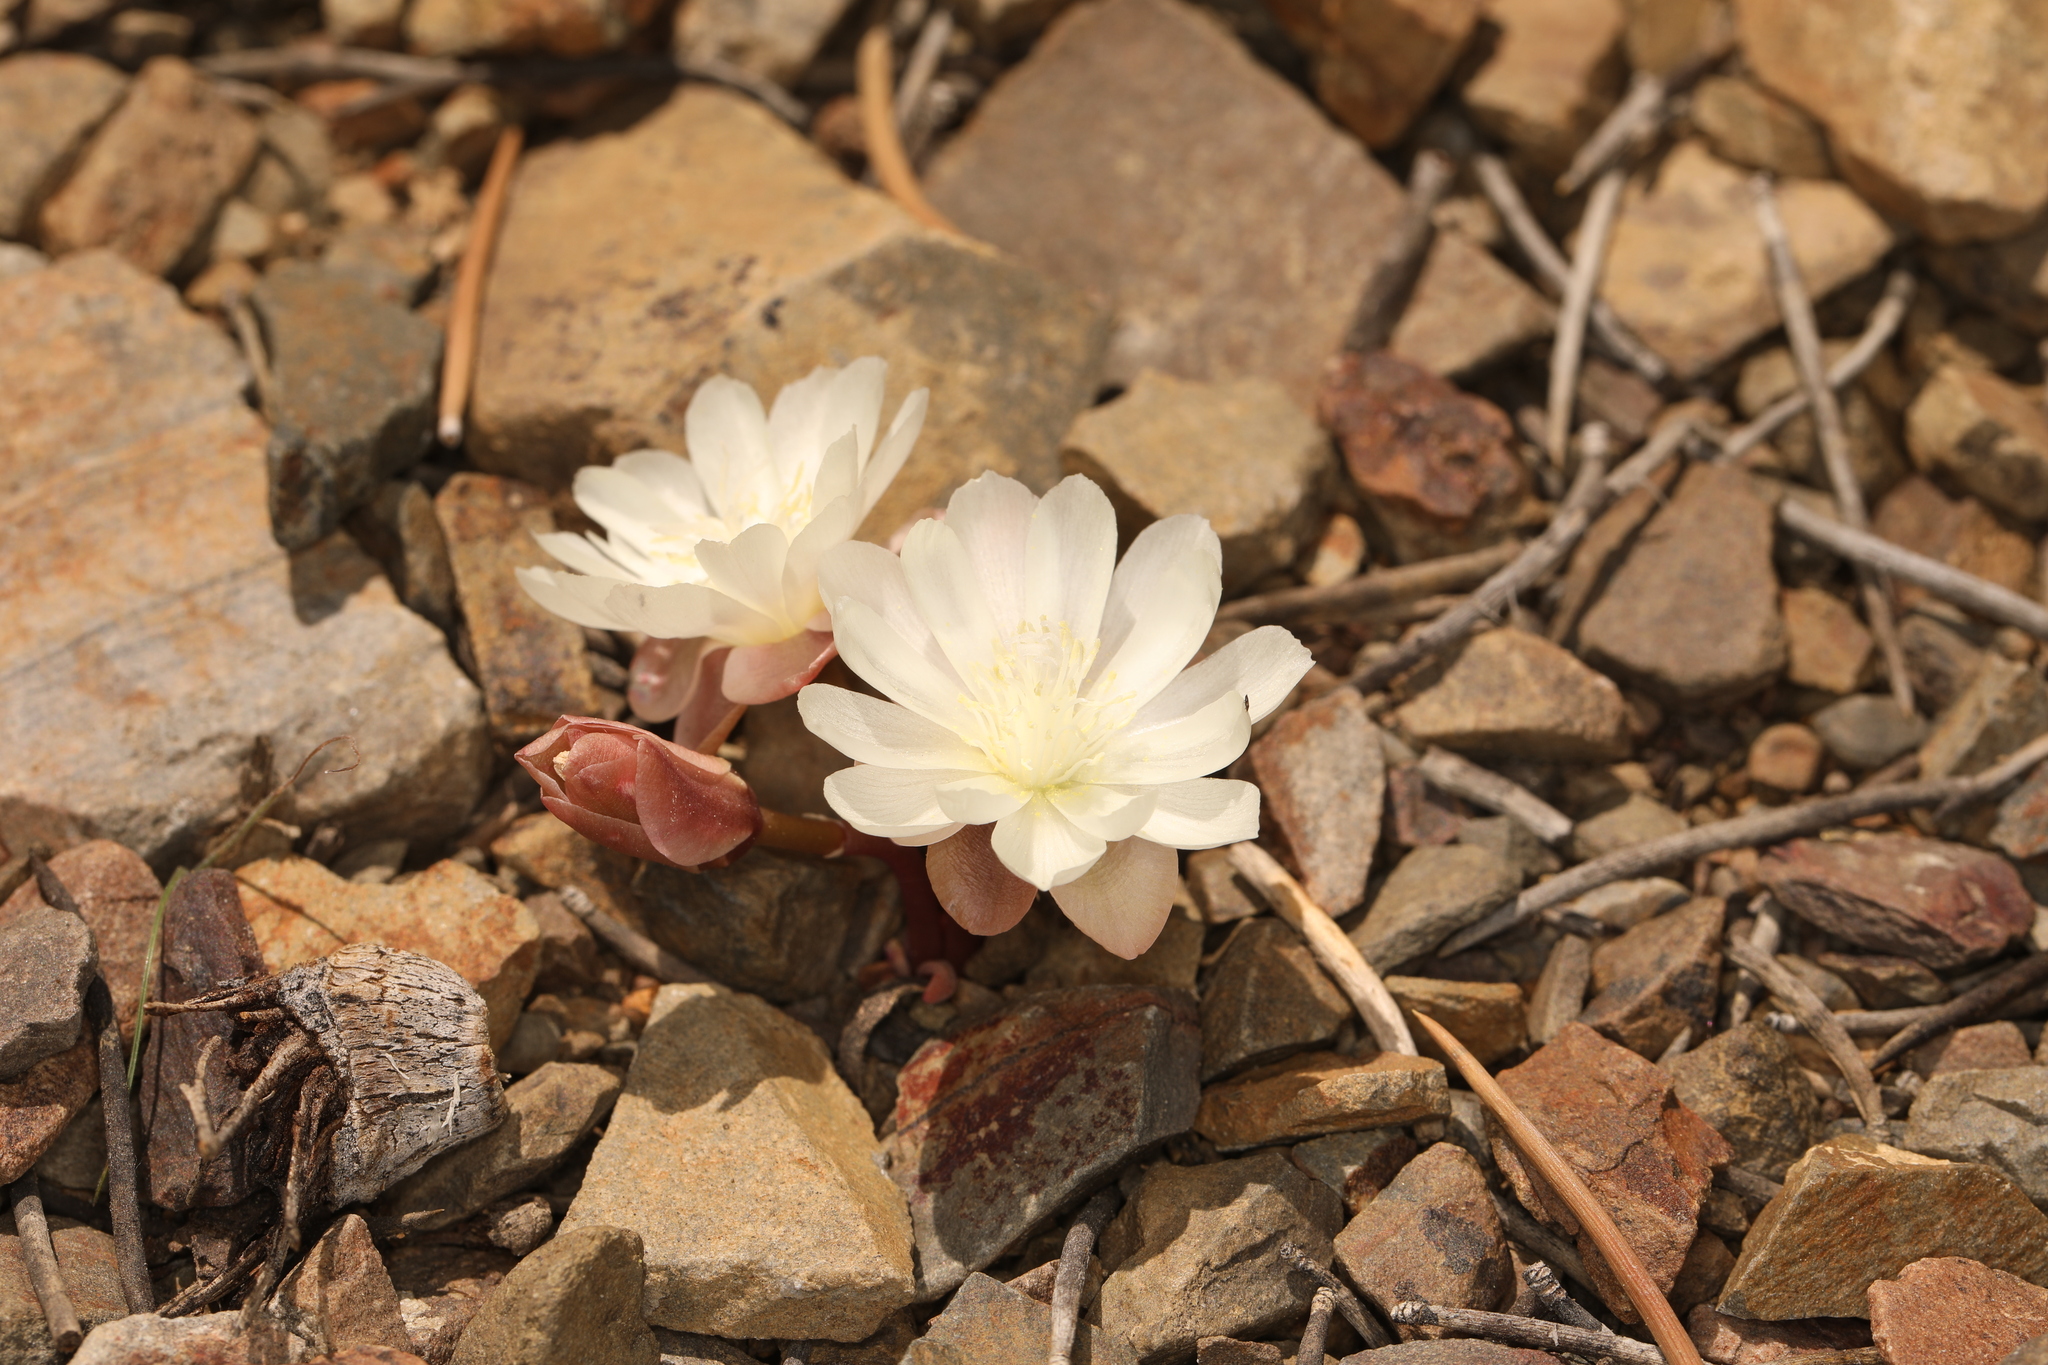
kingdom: Plantae
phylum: Tracheophyta
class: Magnoliopsida
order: Caryophyllales
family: Montiaceae
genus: Lewisia
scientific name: Lewisia rediviva
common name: Bitter-root
